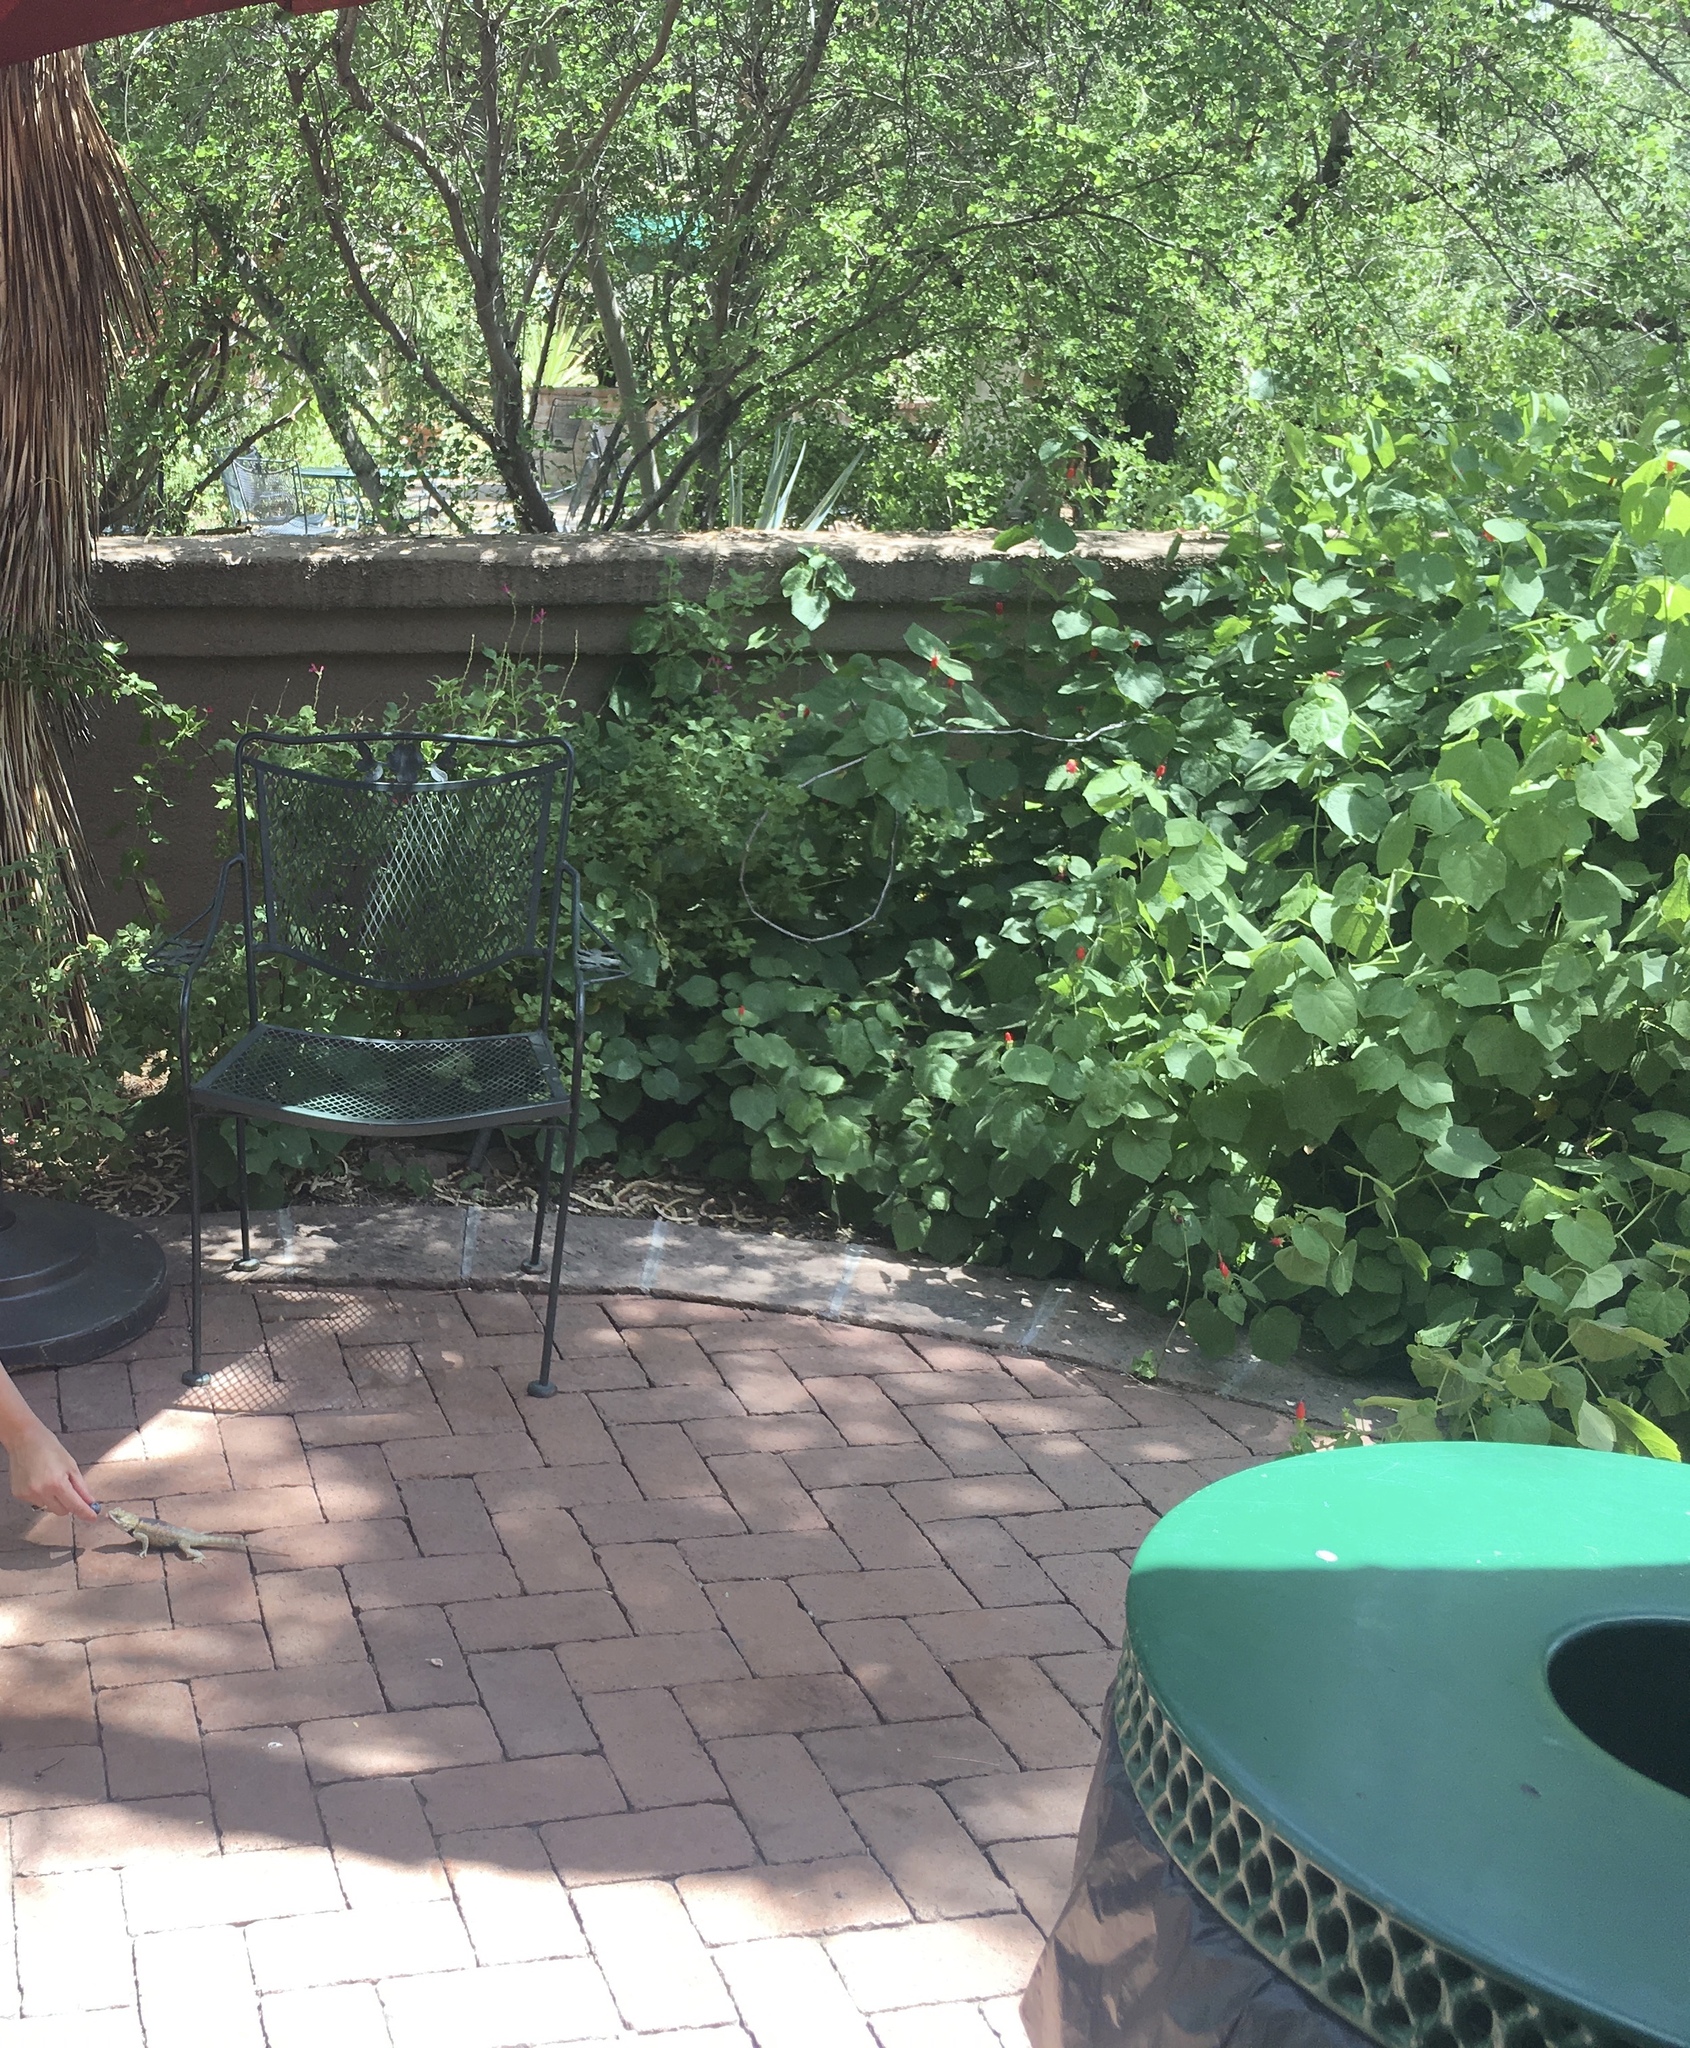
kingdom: Animalia
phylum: Chordata
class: Squamata
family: Phrynosomatidae
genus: Sceloporus
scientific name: Sceloporus magister
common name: Desert spiny lizard
